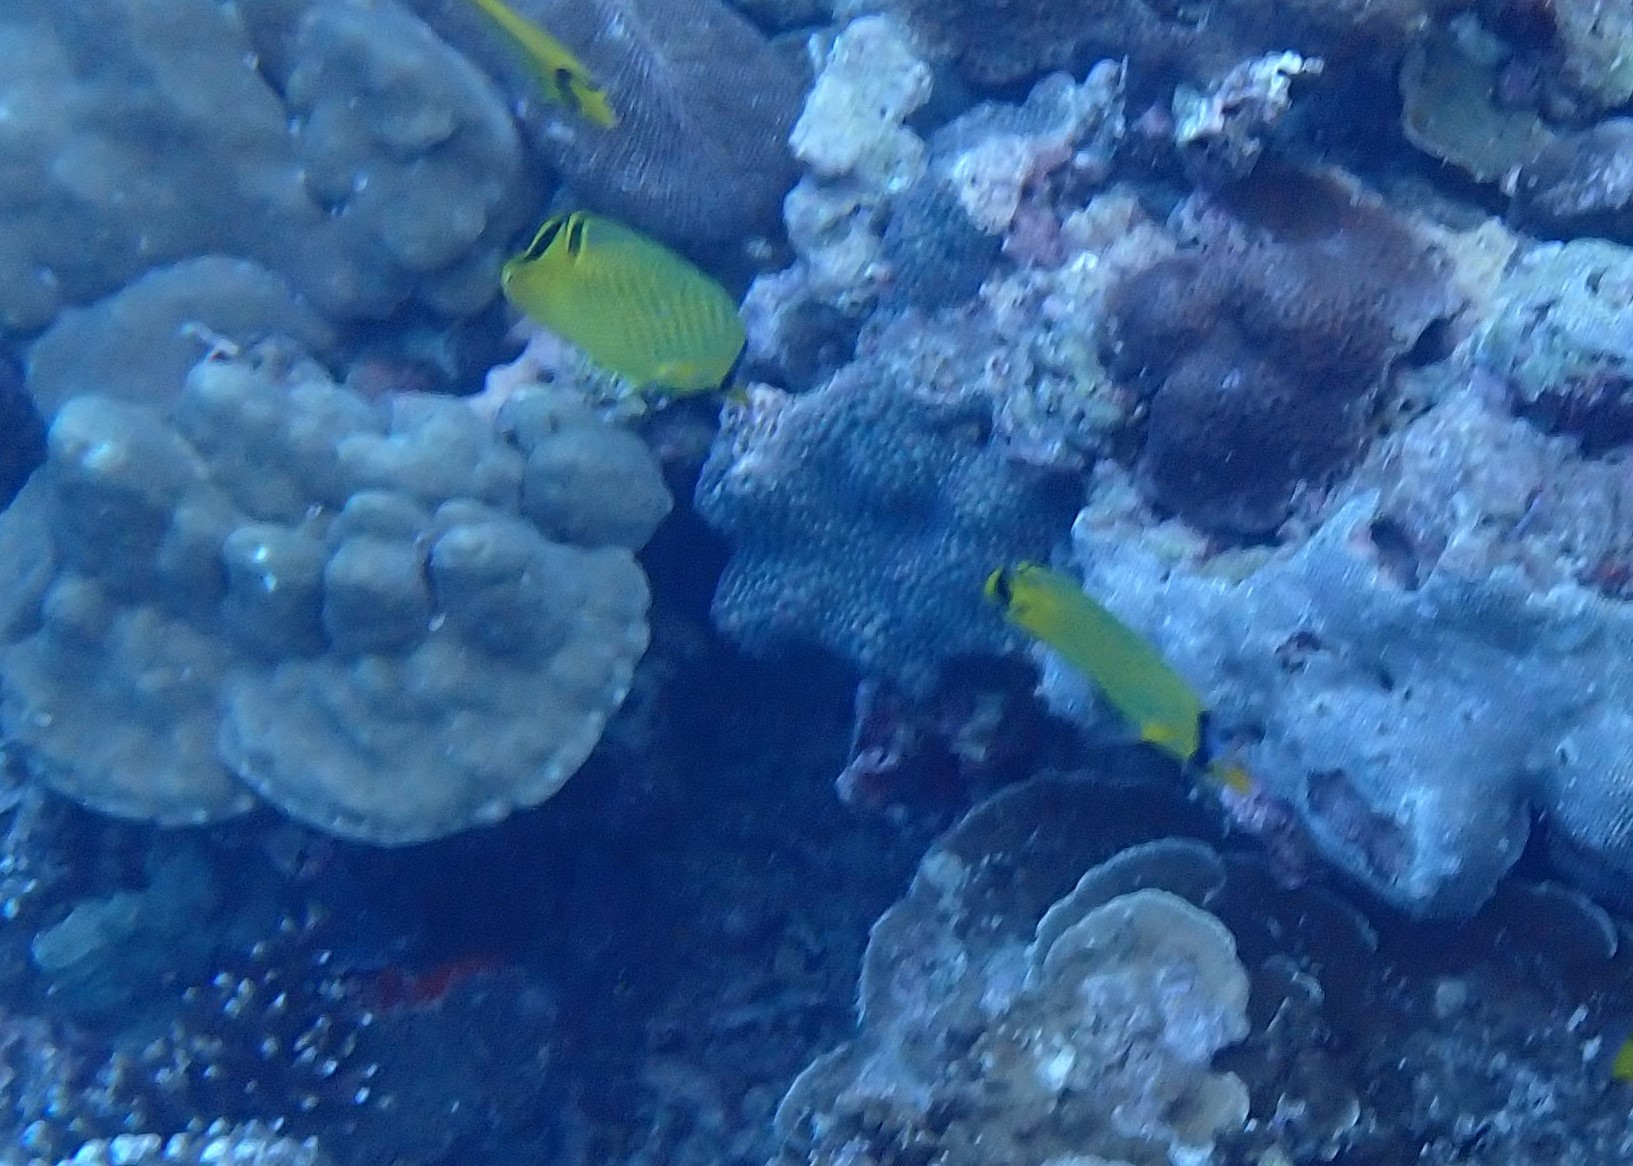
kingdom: Animalia
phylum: Chordata
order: Perciformes
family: Chaetodontidae
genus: Chaetodon
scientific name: Chaetodon rafflesii
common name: Latticed butterflyfish
